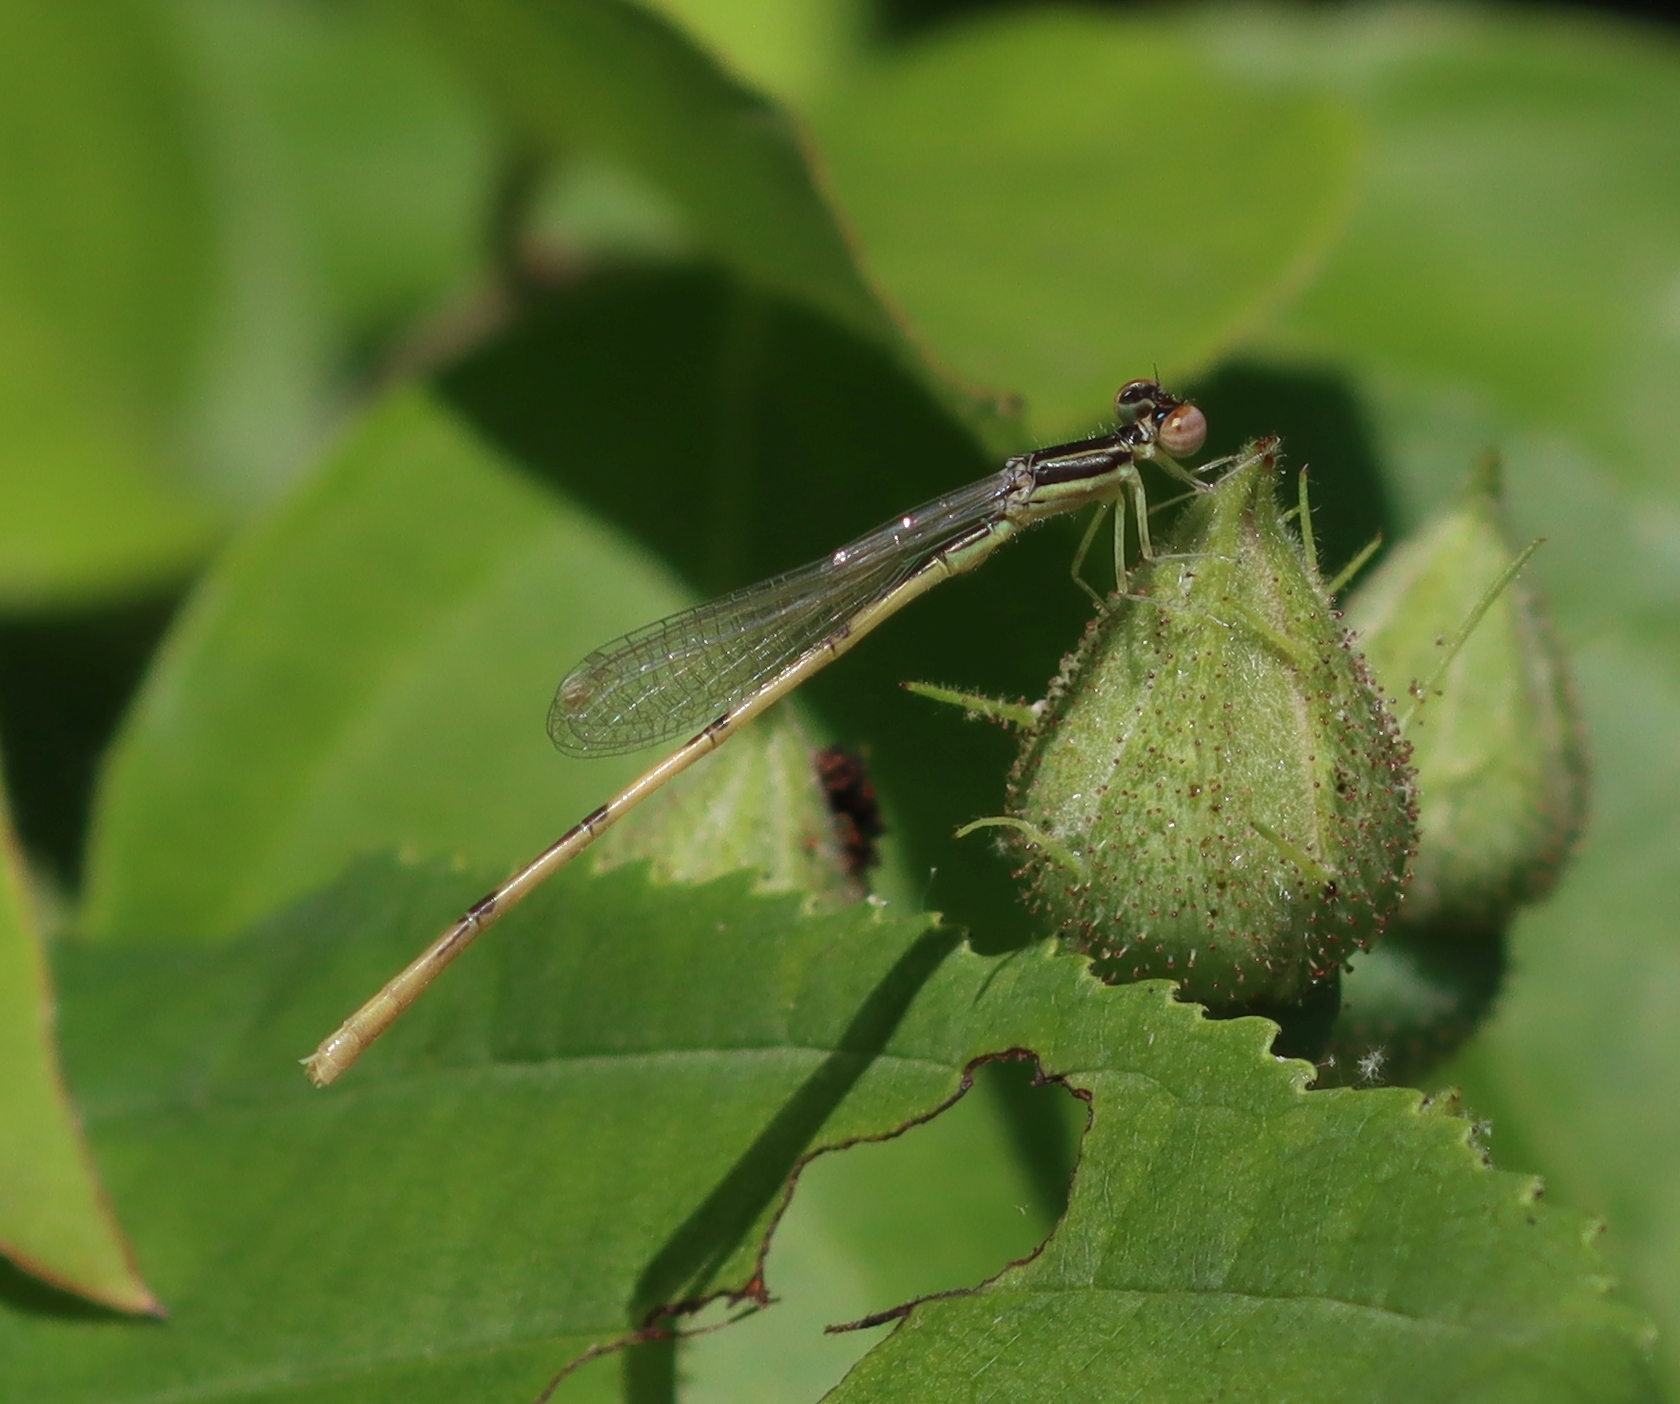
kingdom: Animalia
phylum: Arthropoda
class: Insecta
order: Odonata
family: Coenagrionidae
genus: Ischnura
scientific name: Ischnura hastata
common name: Citrine forktail
